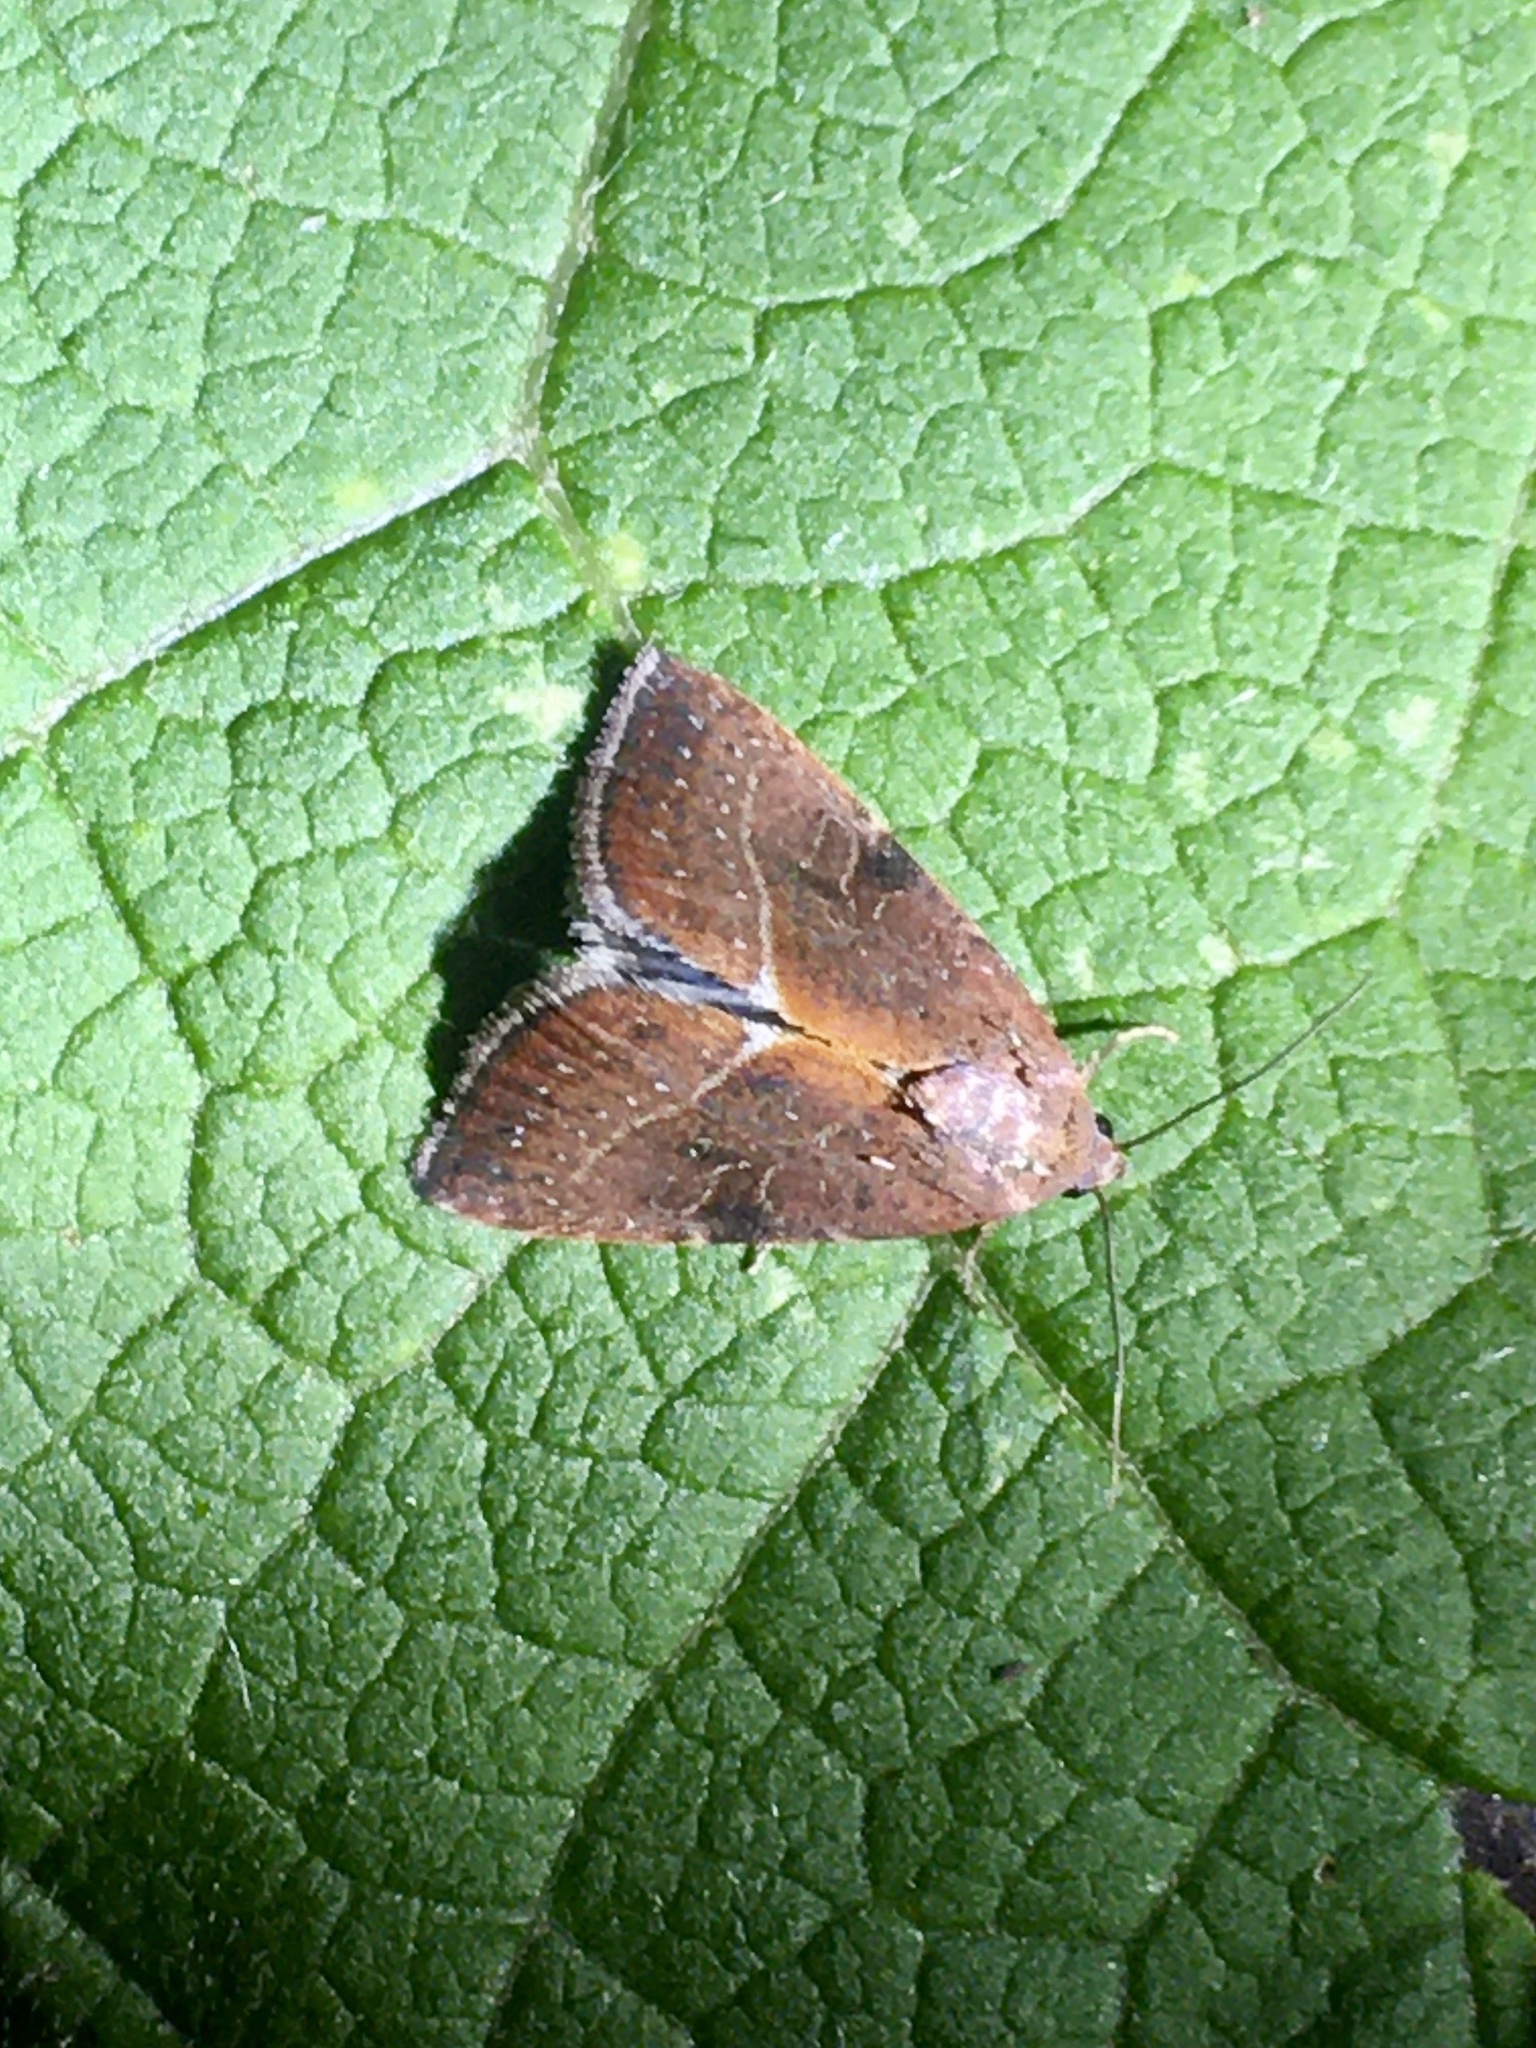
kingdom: Animalia
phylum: Arthropoda
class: Insecta
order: Lepidoptera
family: Noctuidae
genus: Galgula
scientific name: Galgula partita
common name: Wedgeling
